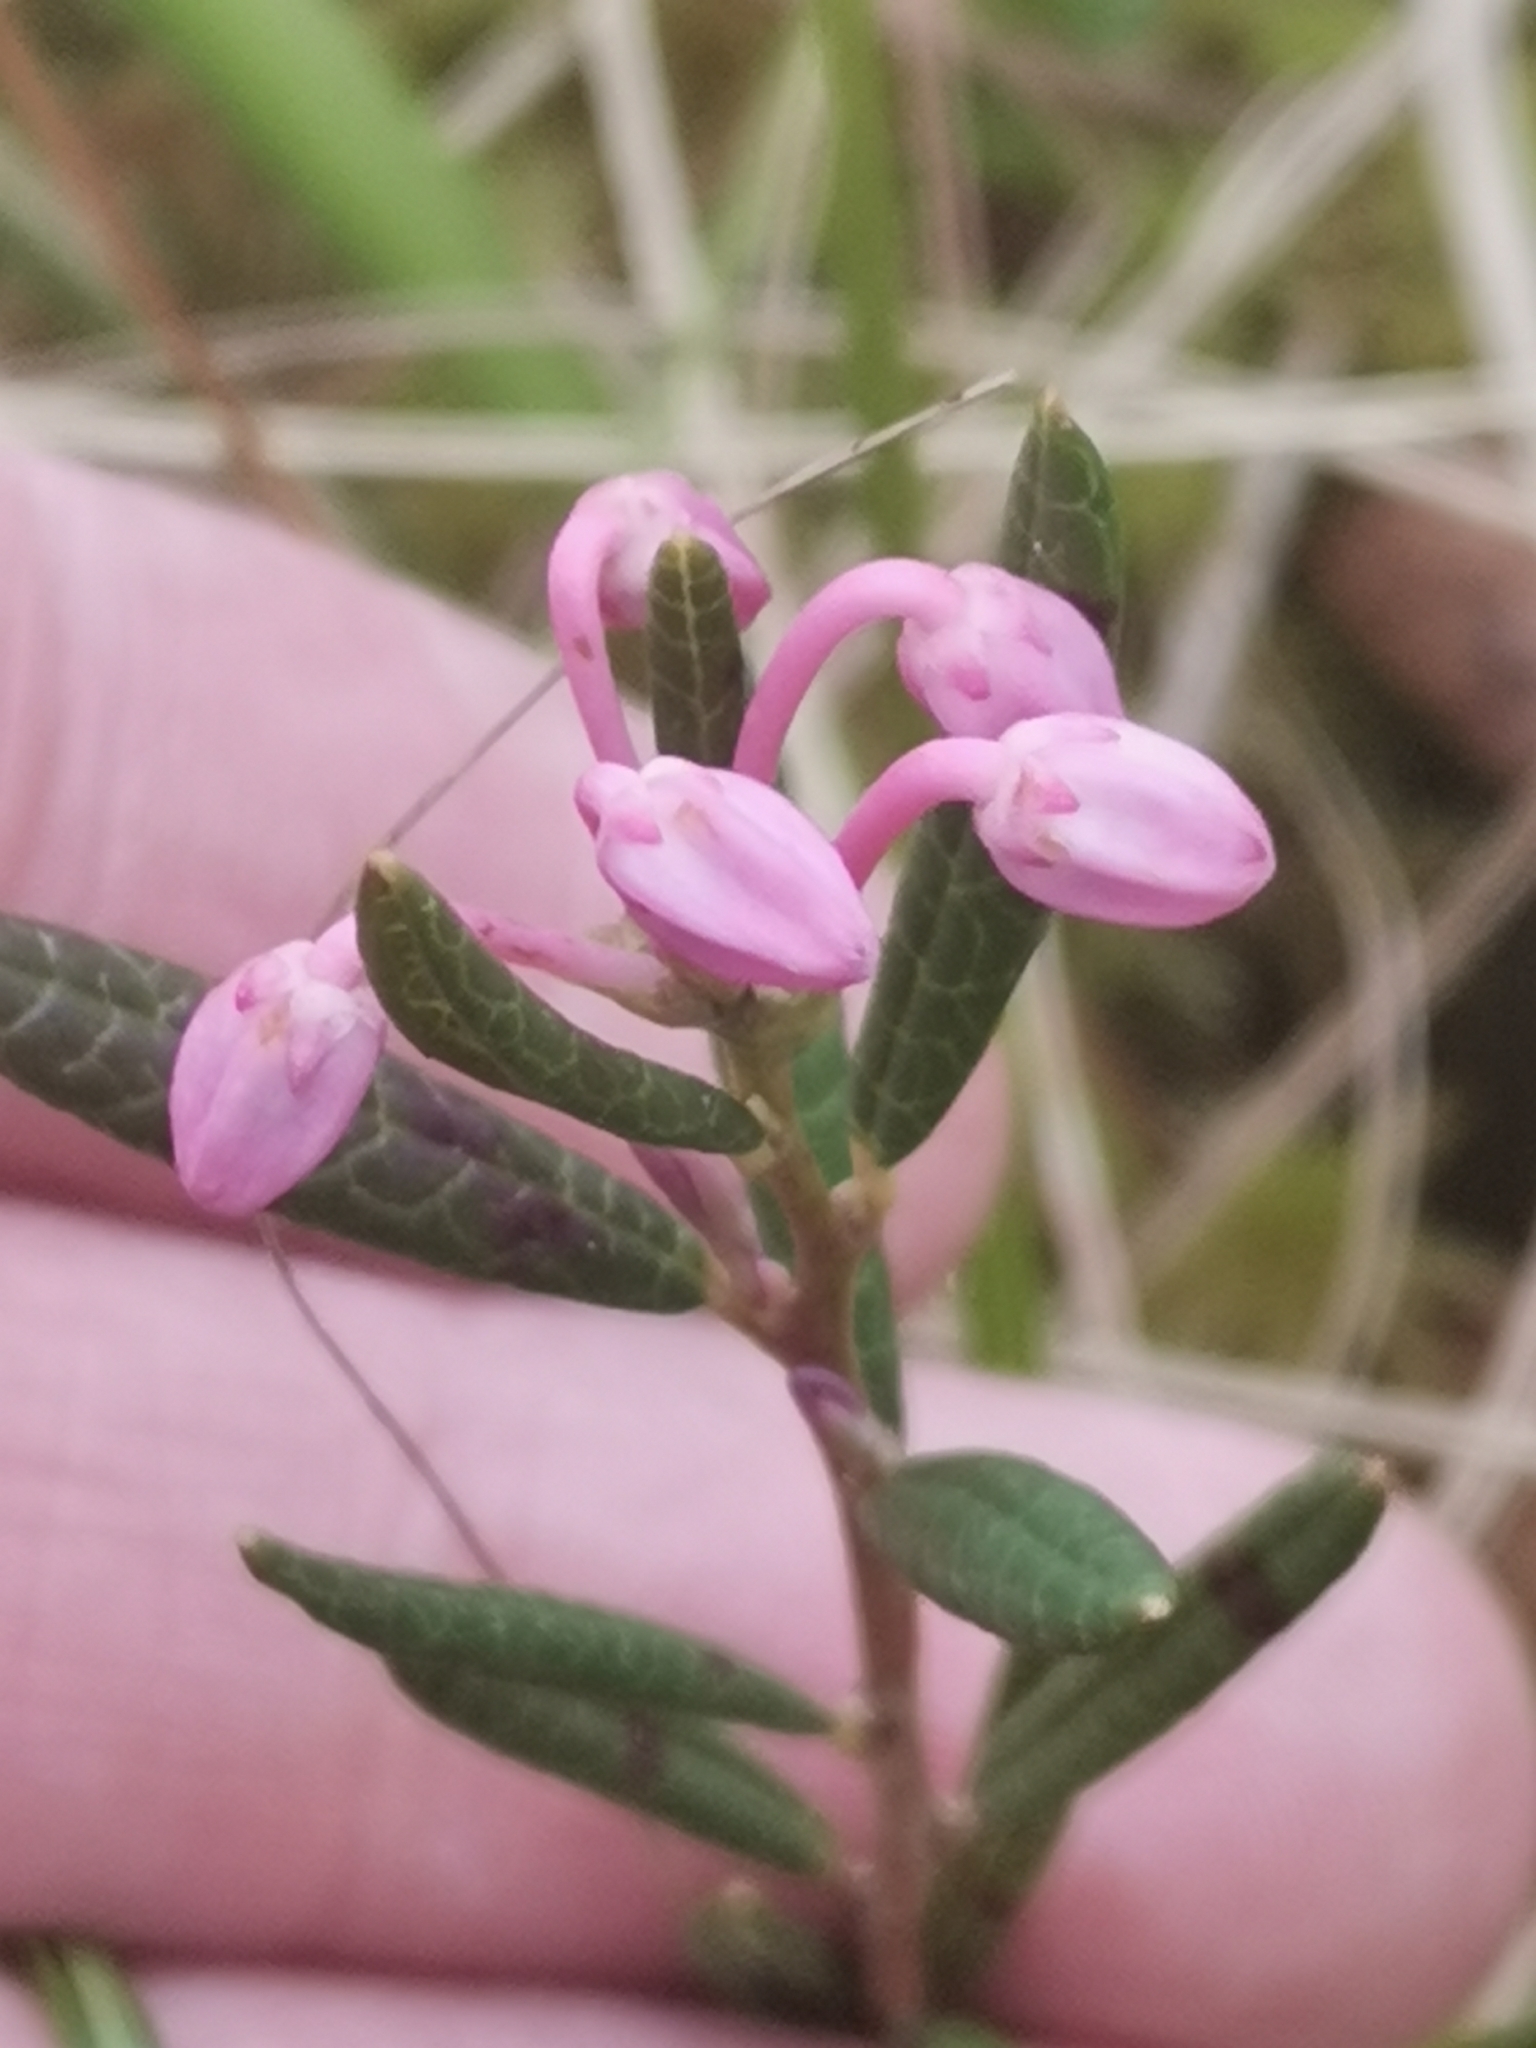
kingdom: Plantae
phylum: Tracheophyta
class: Magnoliopsida
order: Ericales
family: Ericaceae
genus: Andromeda
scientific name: Andromeda polifolia
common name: Bog-rosemary
